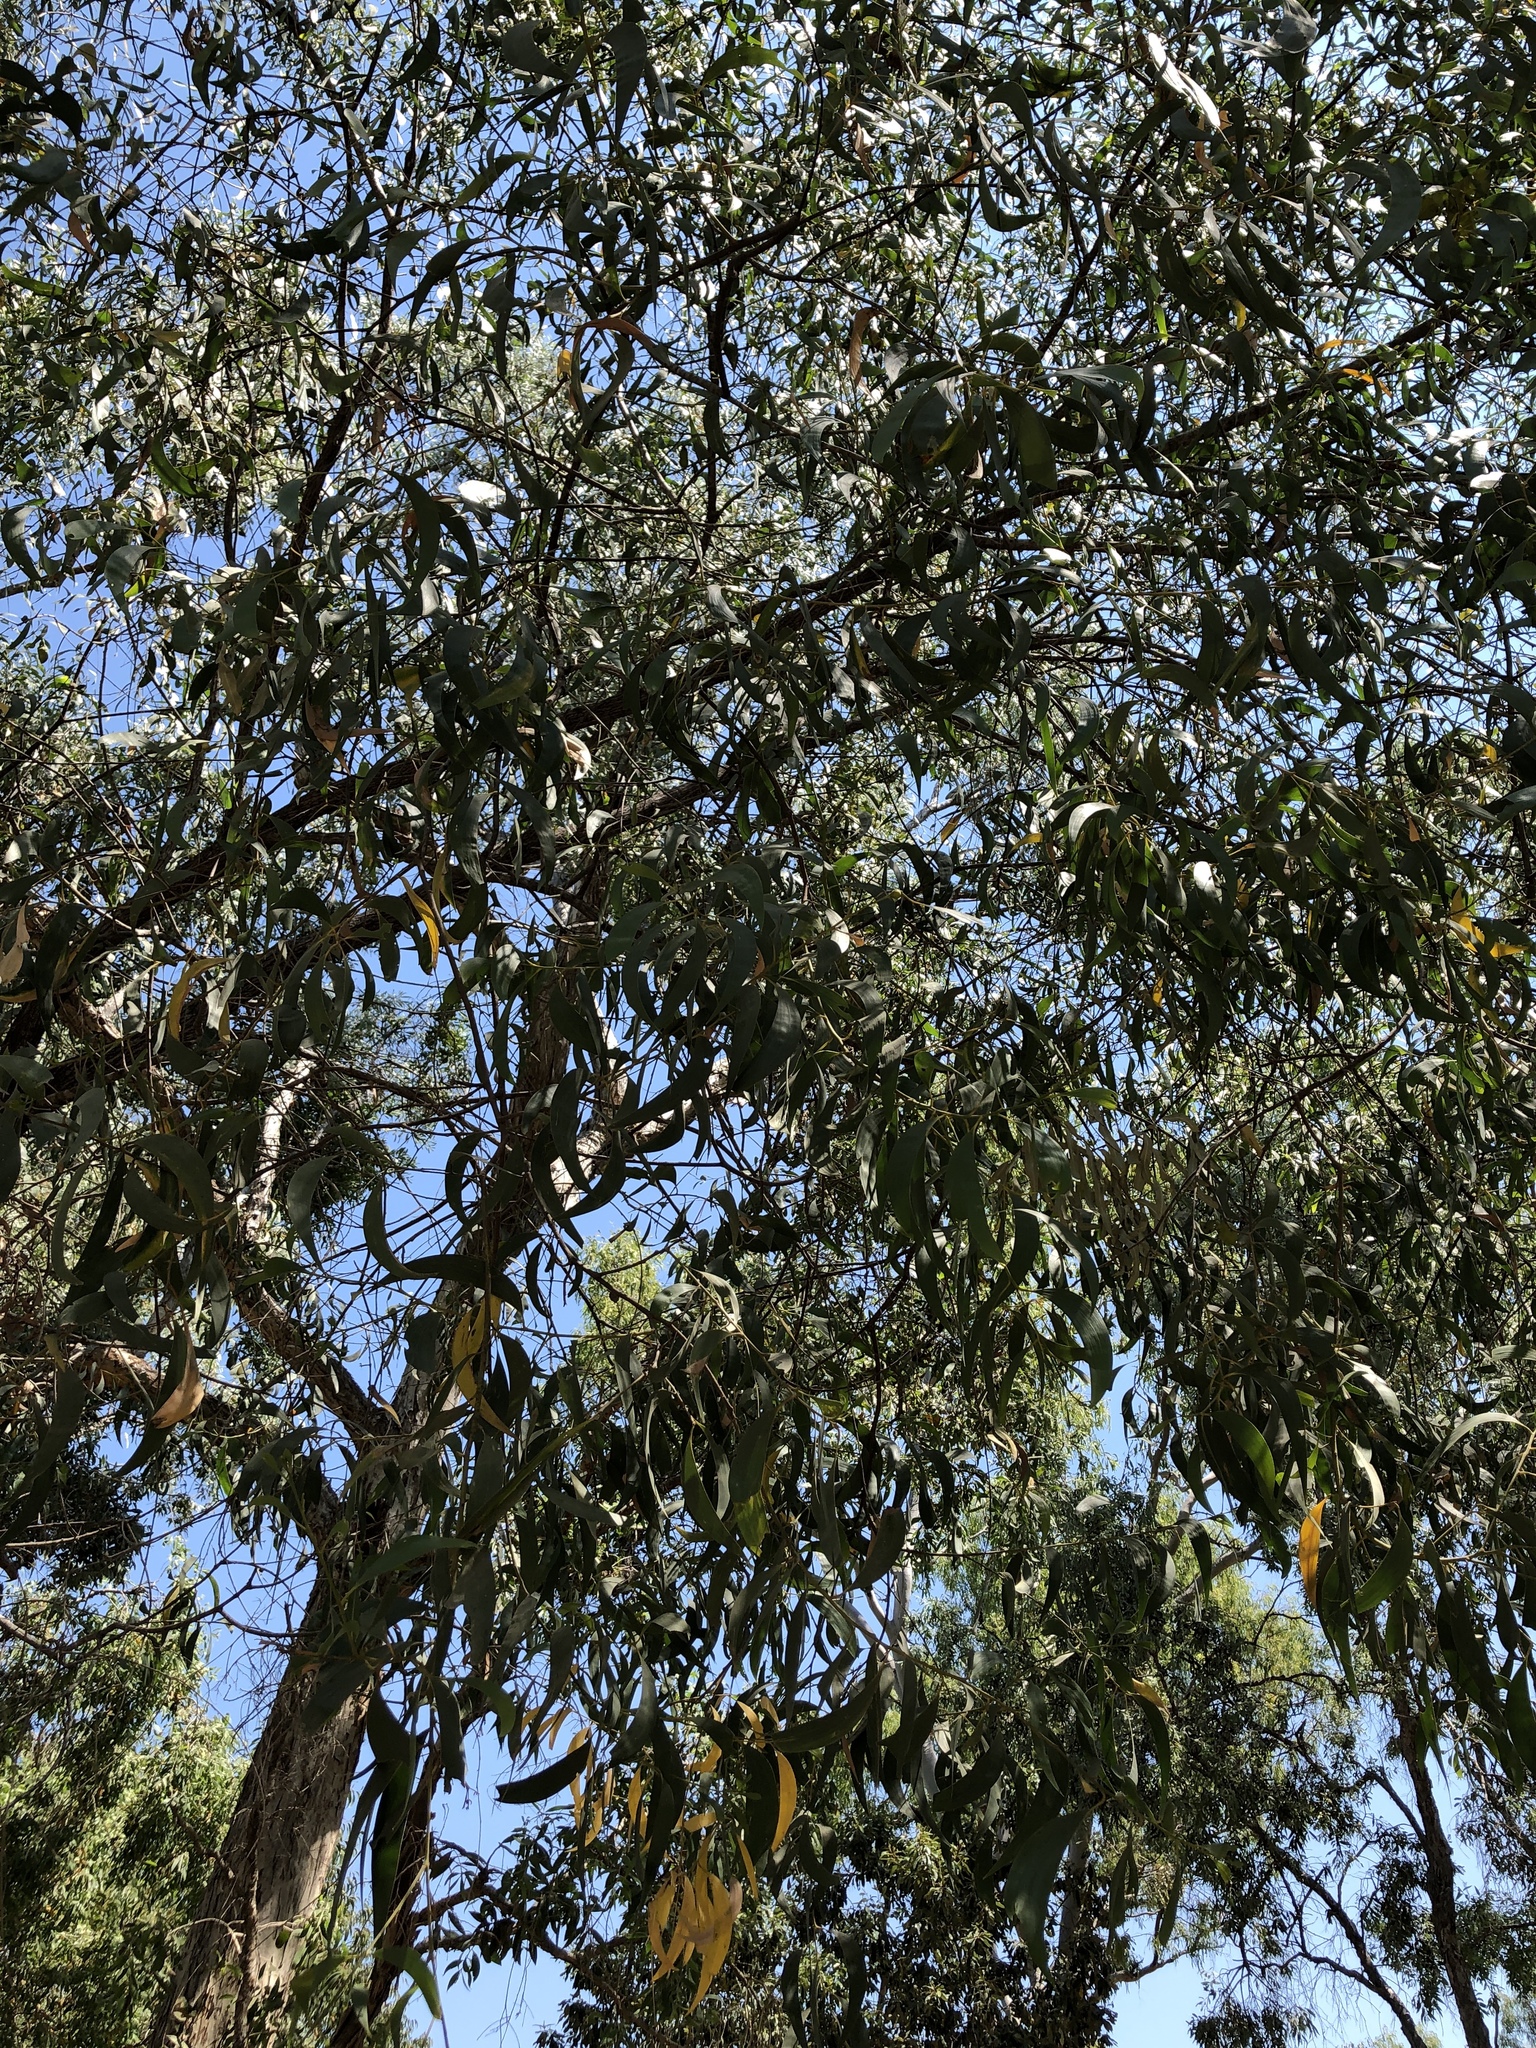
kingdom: Plantae
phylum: Tracheophyta
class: Magnoliopsida
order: Fabales
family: Fabaceae
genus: Acacia
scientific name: Acacia crassicarpa
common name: Northern wattle
